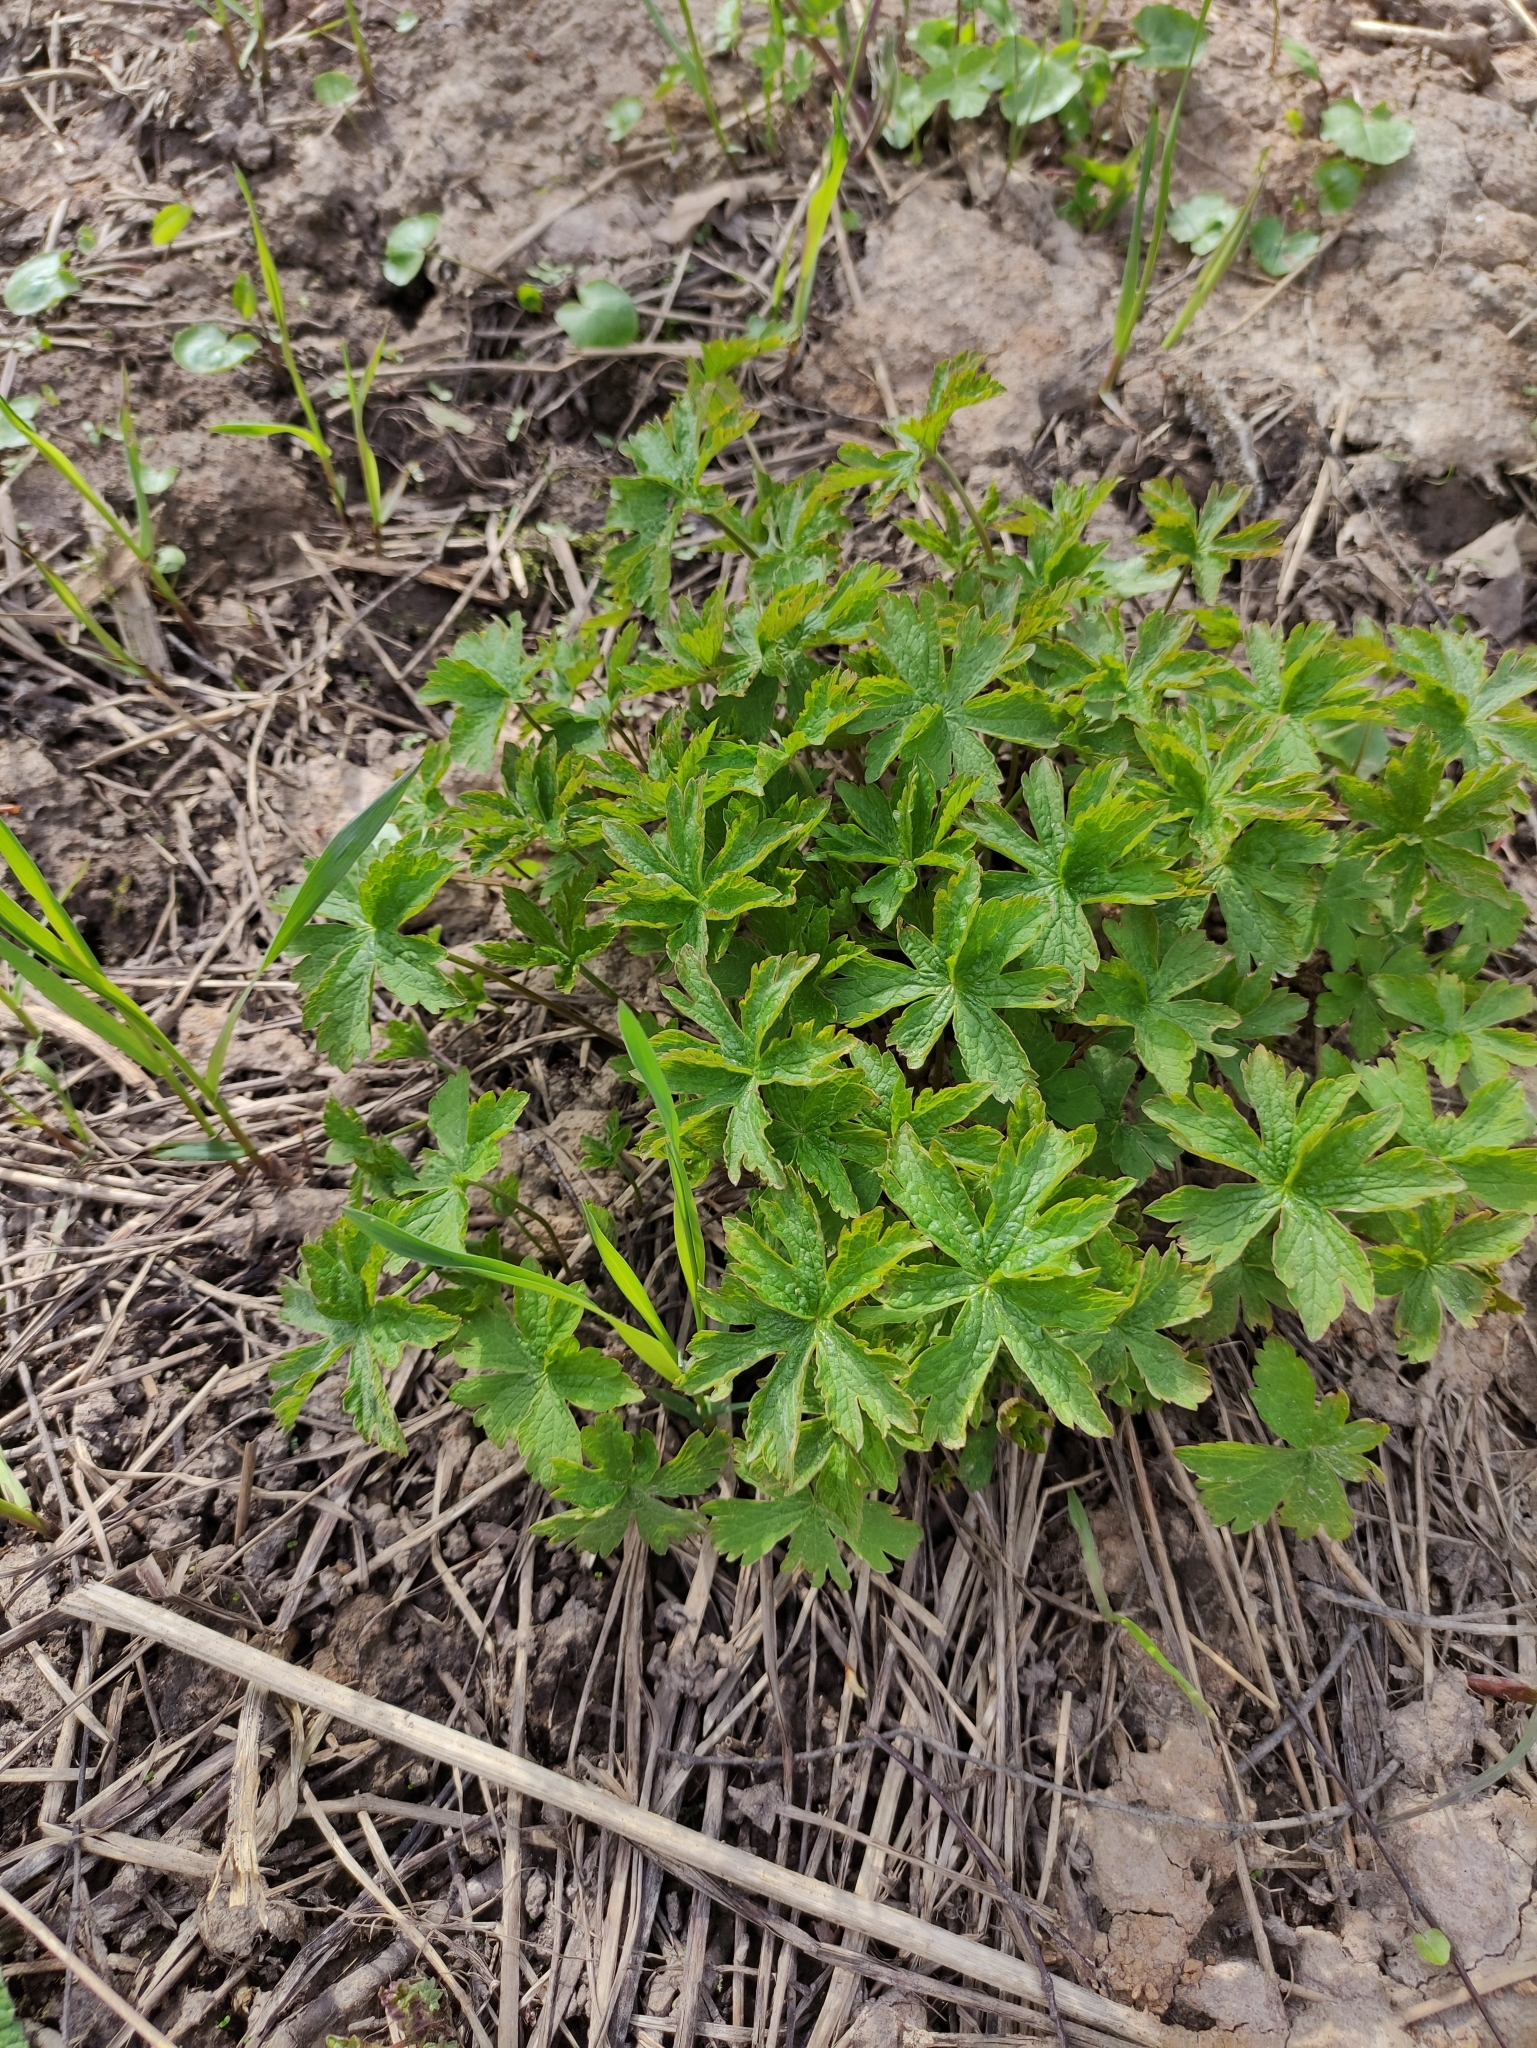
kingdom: Plantae
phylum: Tracheophyta
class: Magnoliopsida
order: Geraniales
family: Geraniaceae
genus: Geranium
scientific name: Geranium sylvaticum
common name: Wood crane's-bill
